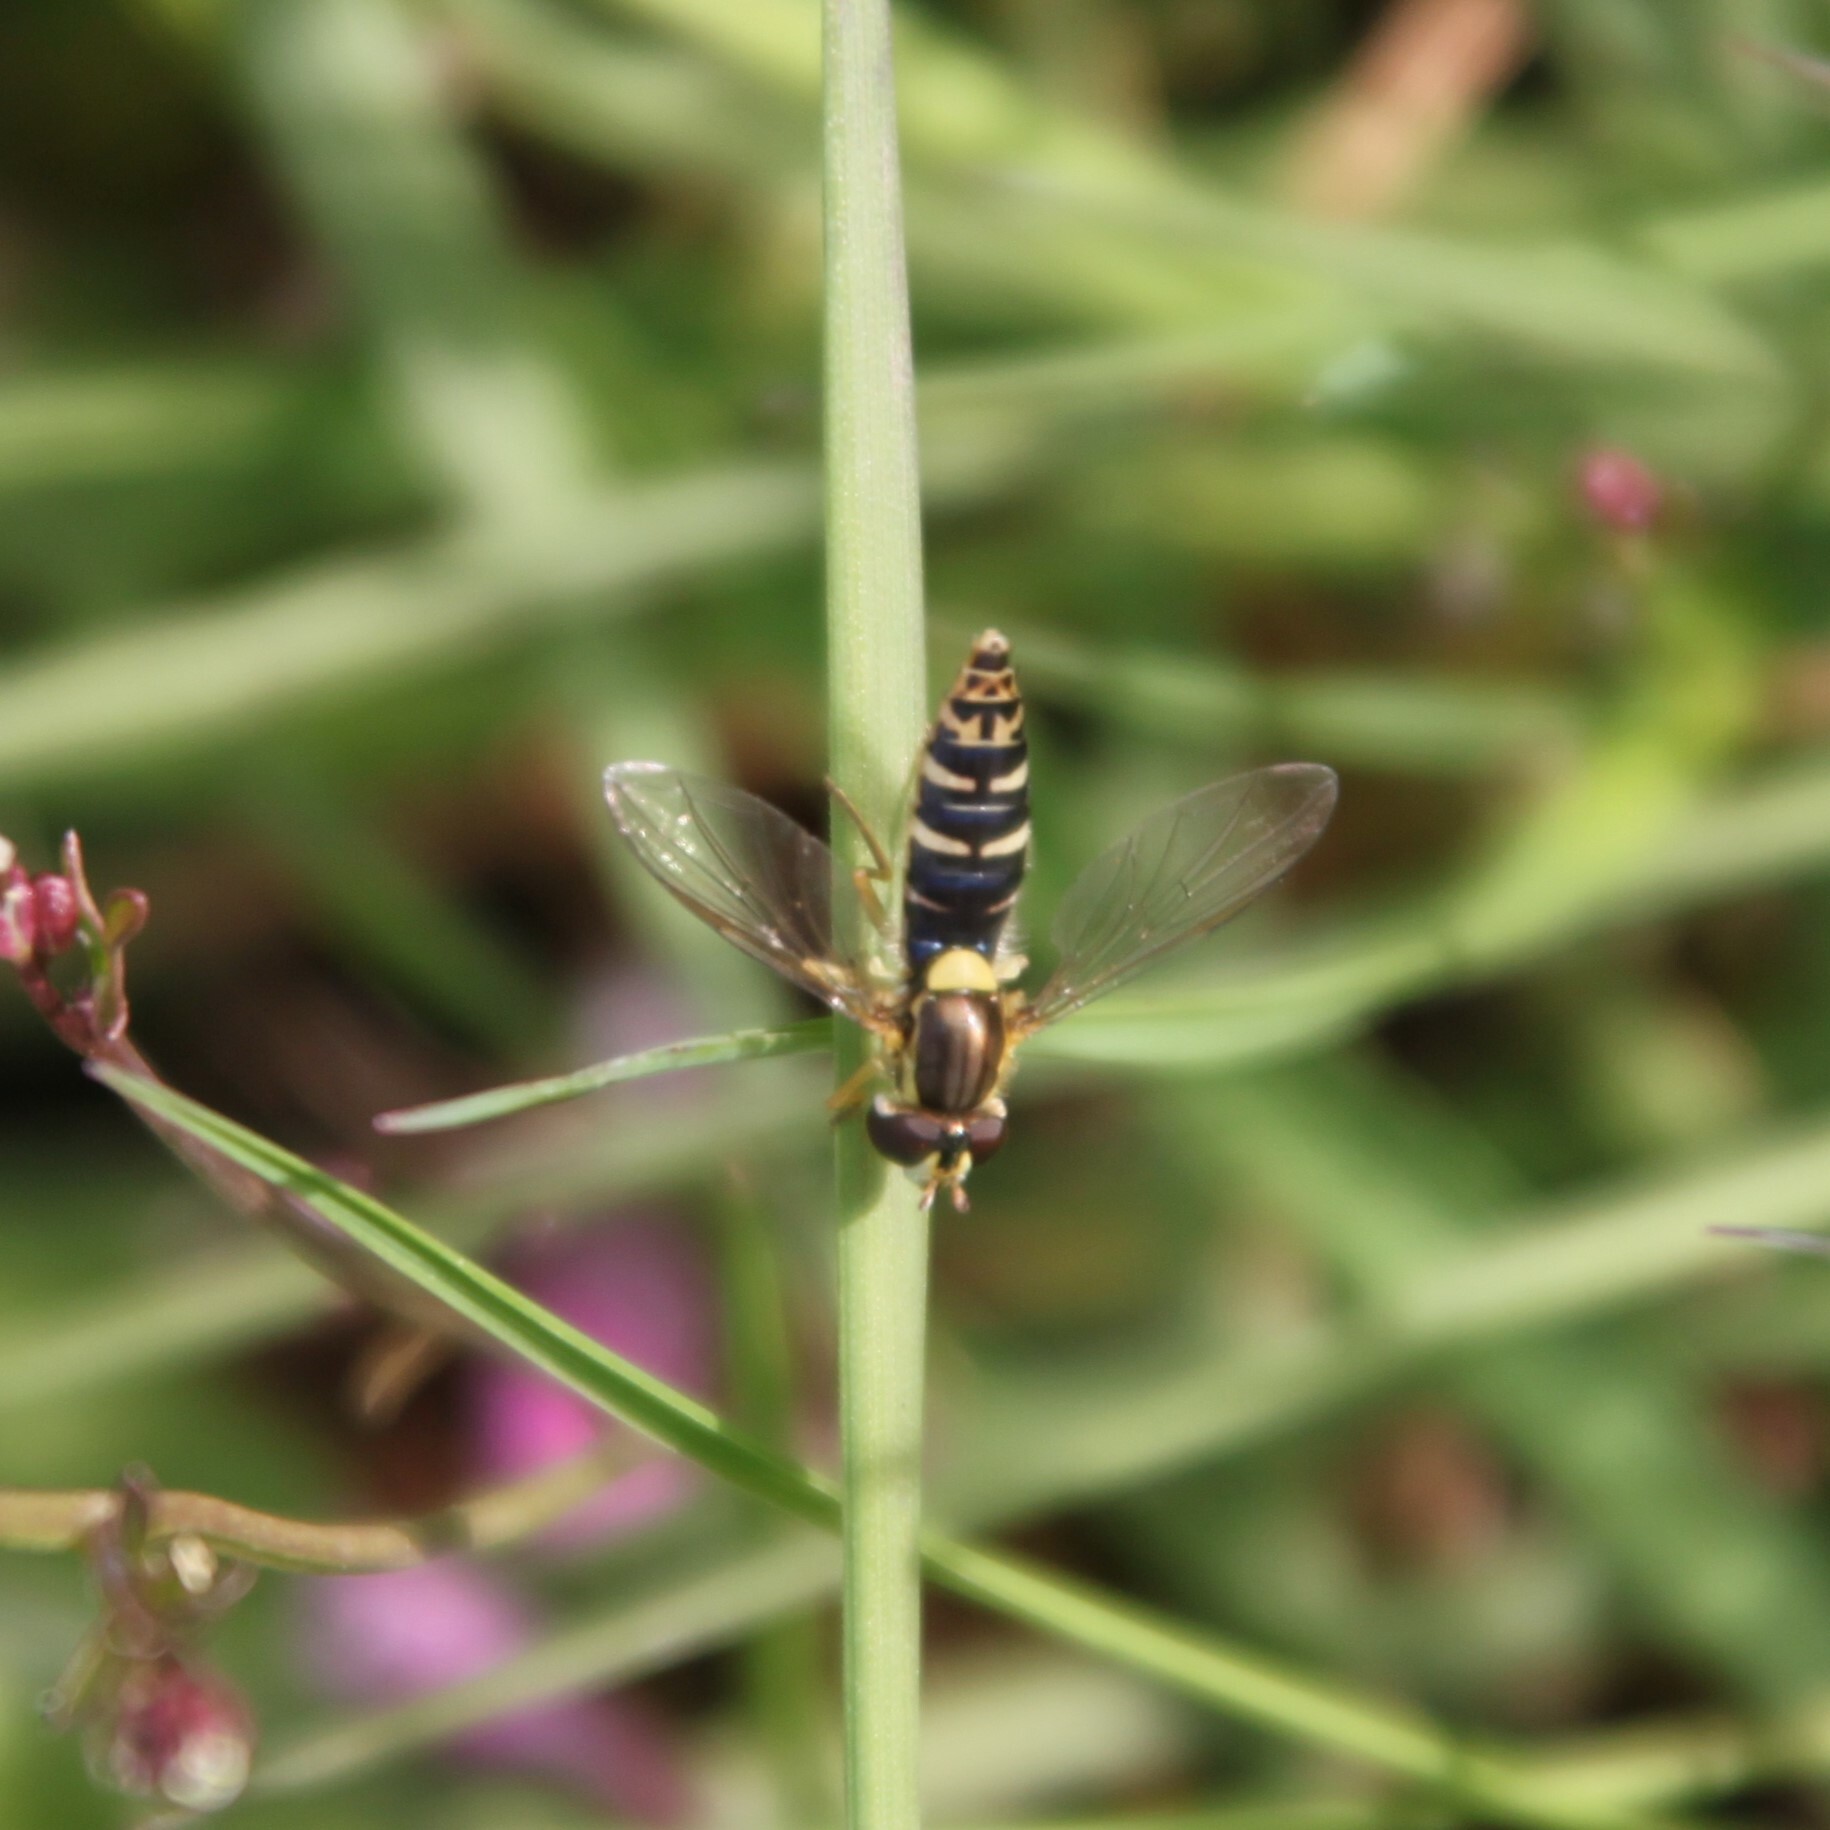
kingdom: Animalia
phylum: Arthropoda
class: Insecta
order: Diptera
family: Syrphidae
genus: Sphaerophoria
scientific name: Sphaerophoria
